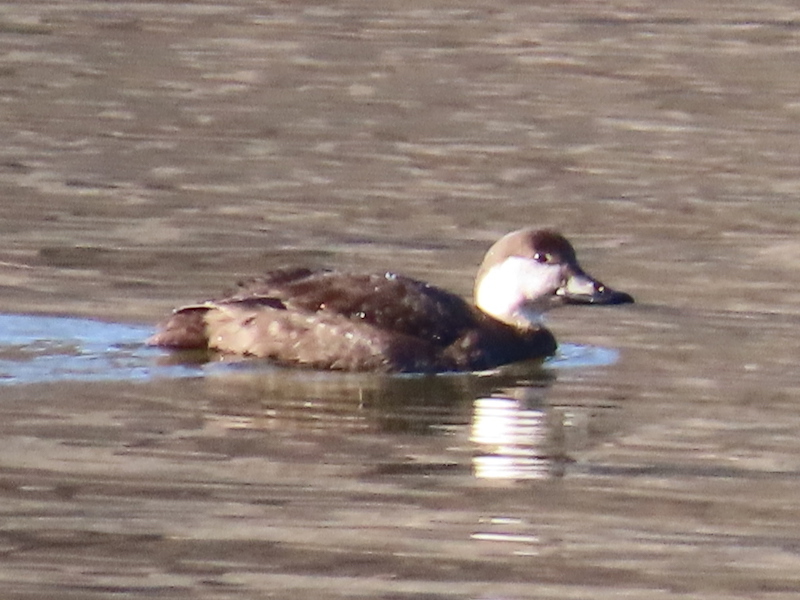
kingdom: Animalia
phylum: Chordata
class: Aves
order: Anseriformes
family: Anatidae
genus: Melanitta
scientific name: Melanitta americana
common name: Black scoter
